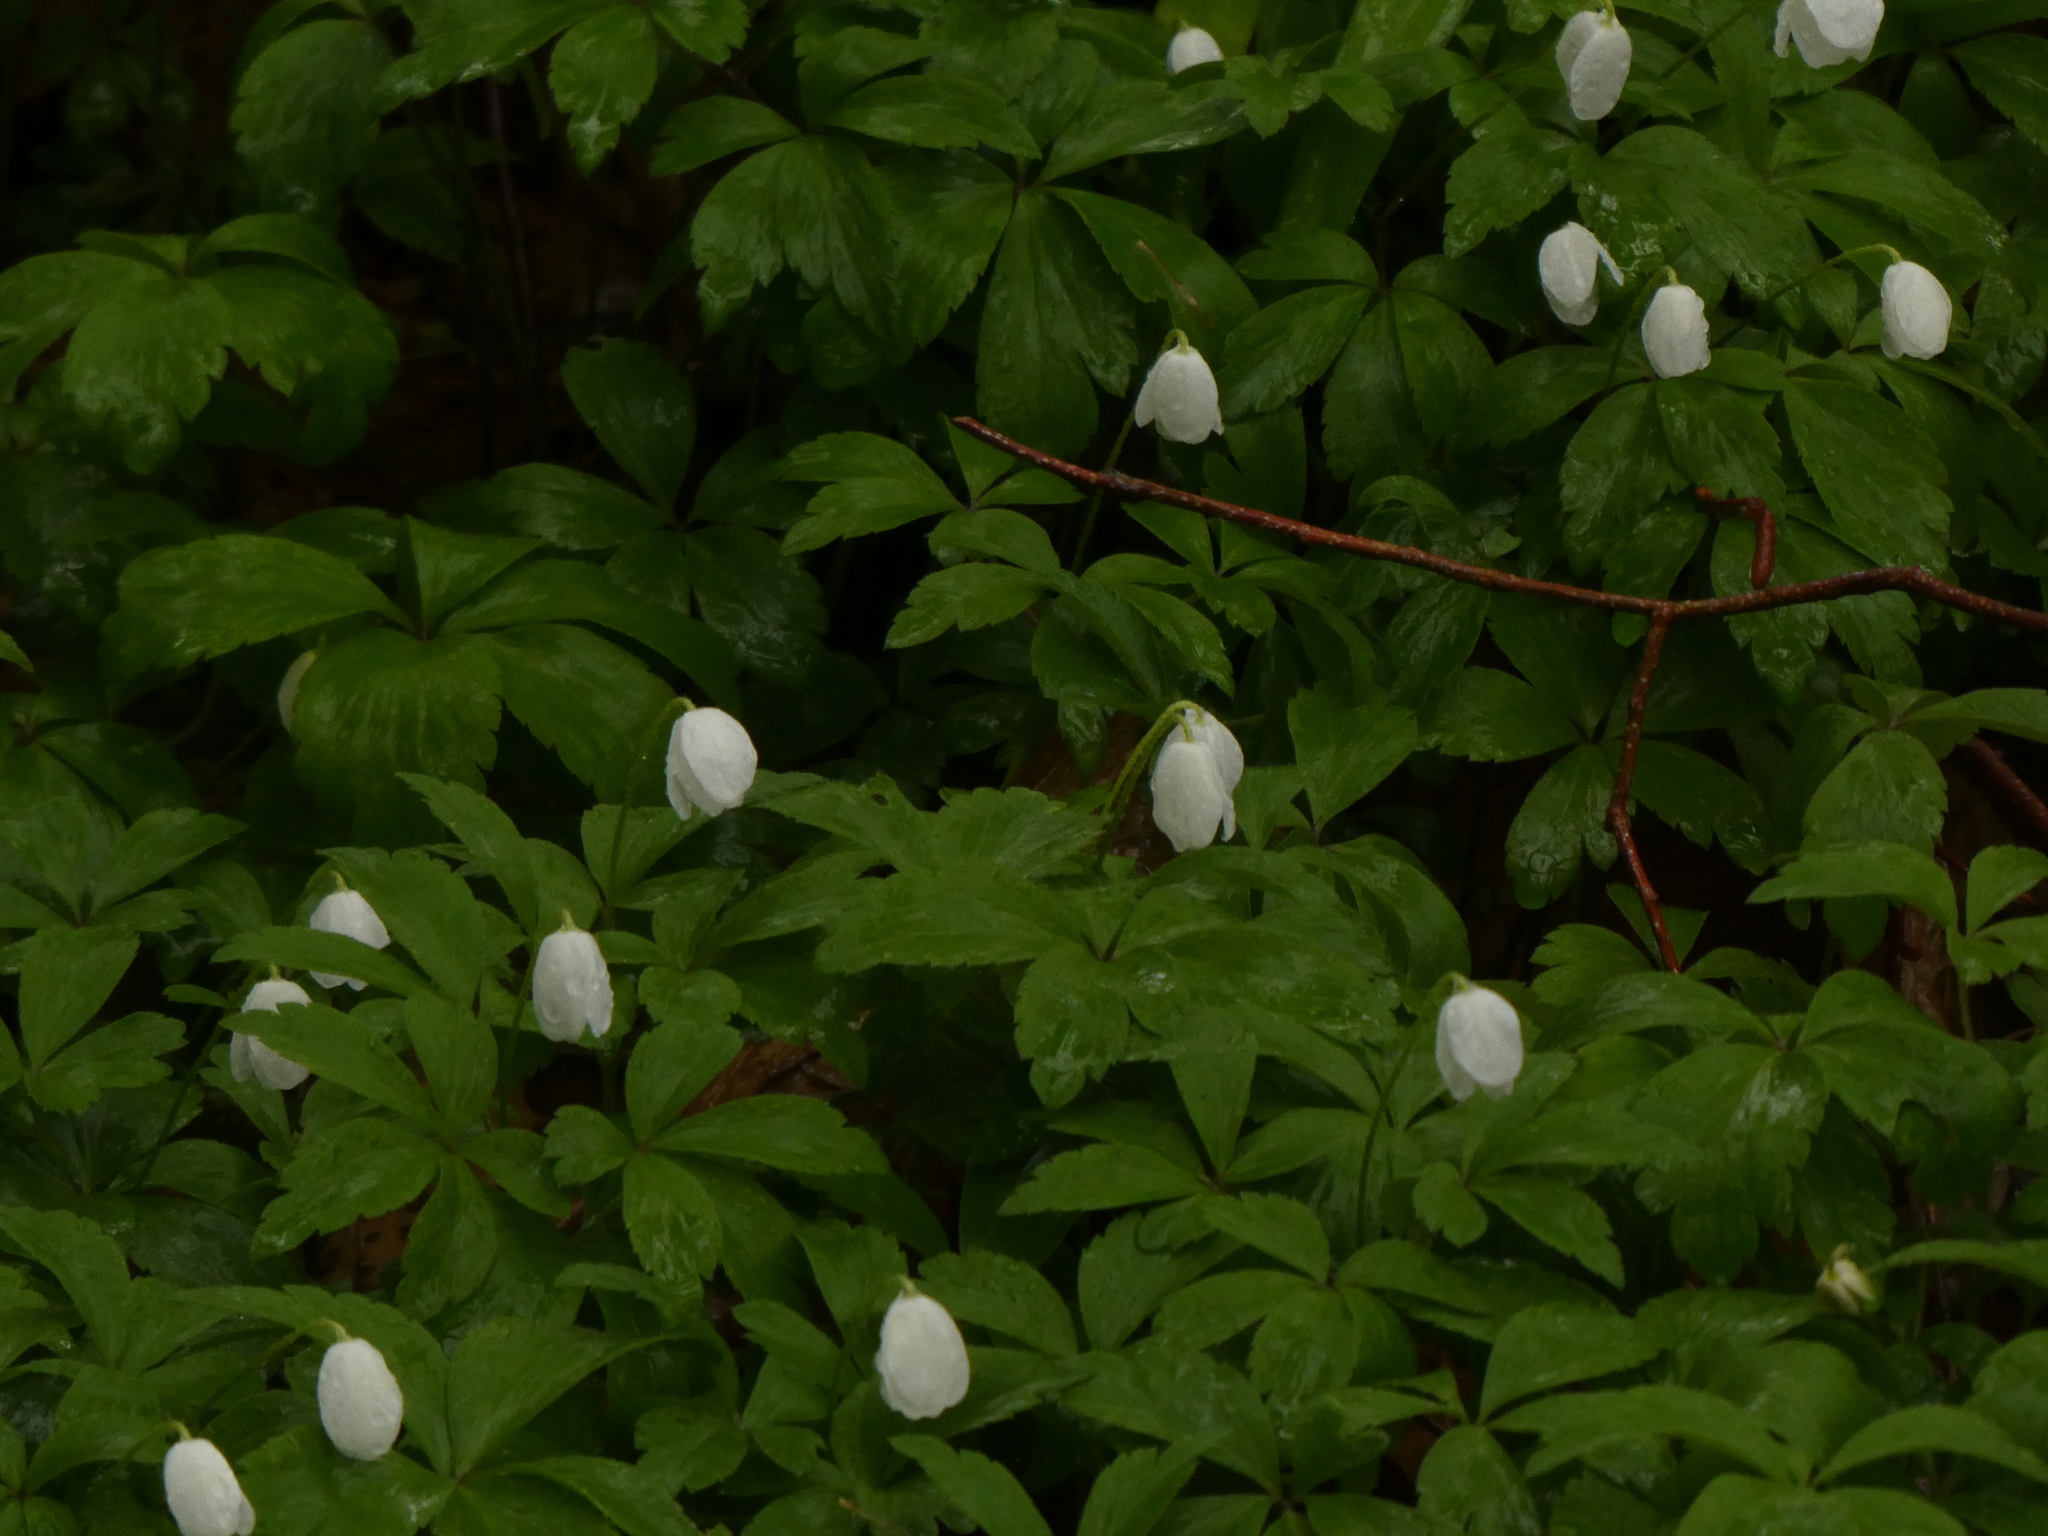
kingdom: Plantae
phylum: Tracheophyta
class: Magnoliopsida
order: Ranunculales
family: Ranunculaceae
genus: Anemone
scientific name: Anemone quinquefolia
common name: Wood anemone
